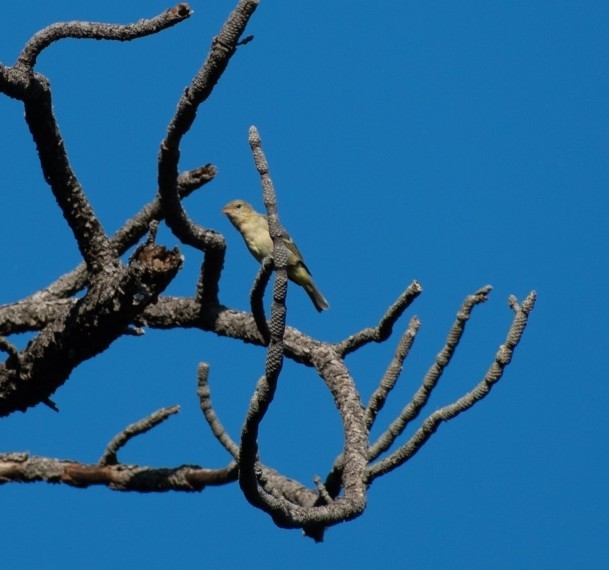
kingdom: Animalia
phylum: Chordata
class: Aves
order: Passeriformes
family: Cardinalidae
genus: Piranga
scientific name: Piranga ludoviciana
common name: Western tanager
